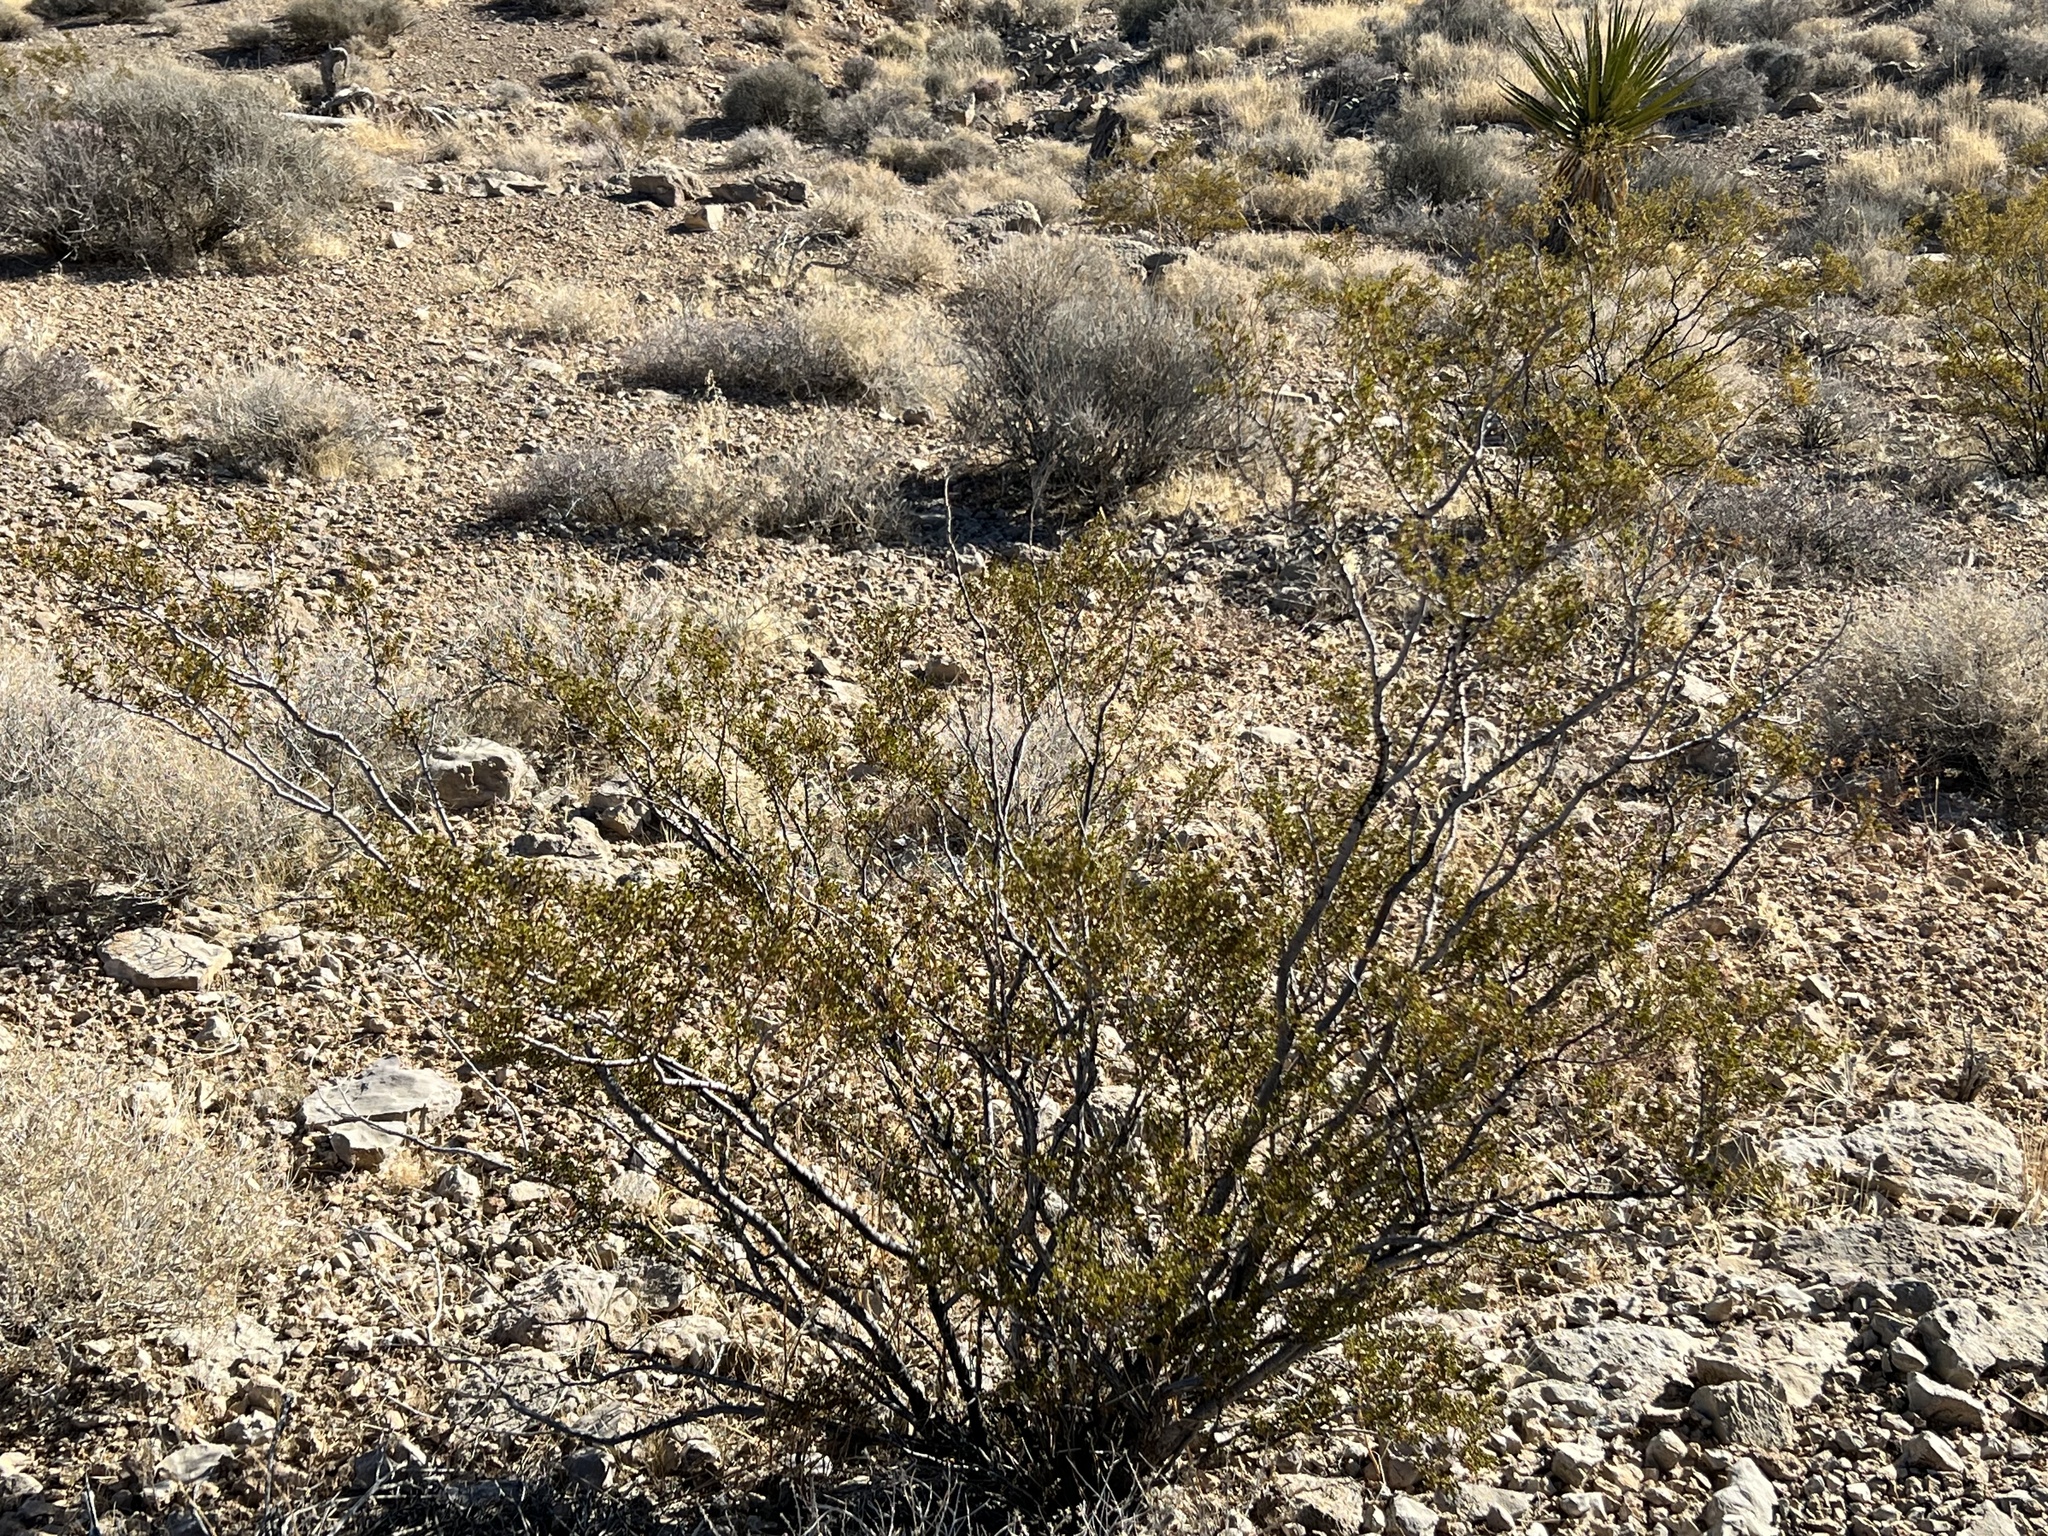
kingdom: Plantae
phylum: Tracheophyta
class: Magnoliopsida
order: Zygophyllales
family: Zygophyllaceae
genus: Larrea
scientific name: Larrea tridentata
